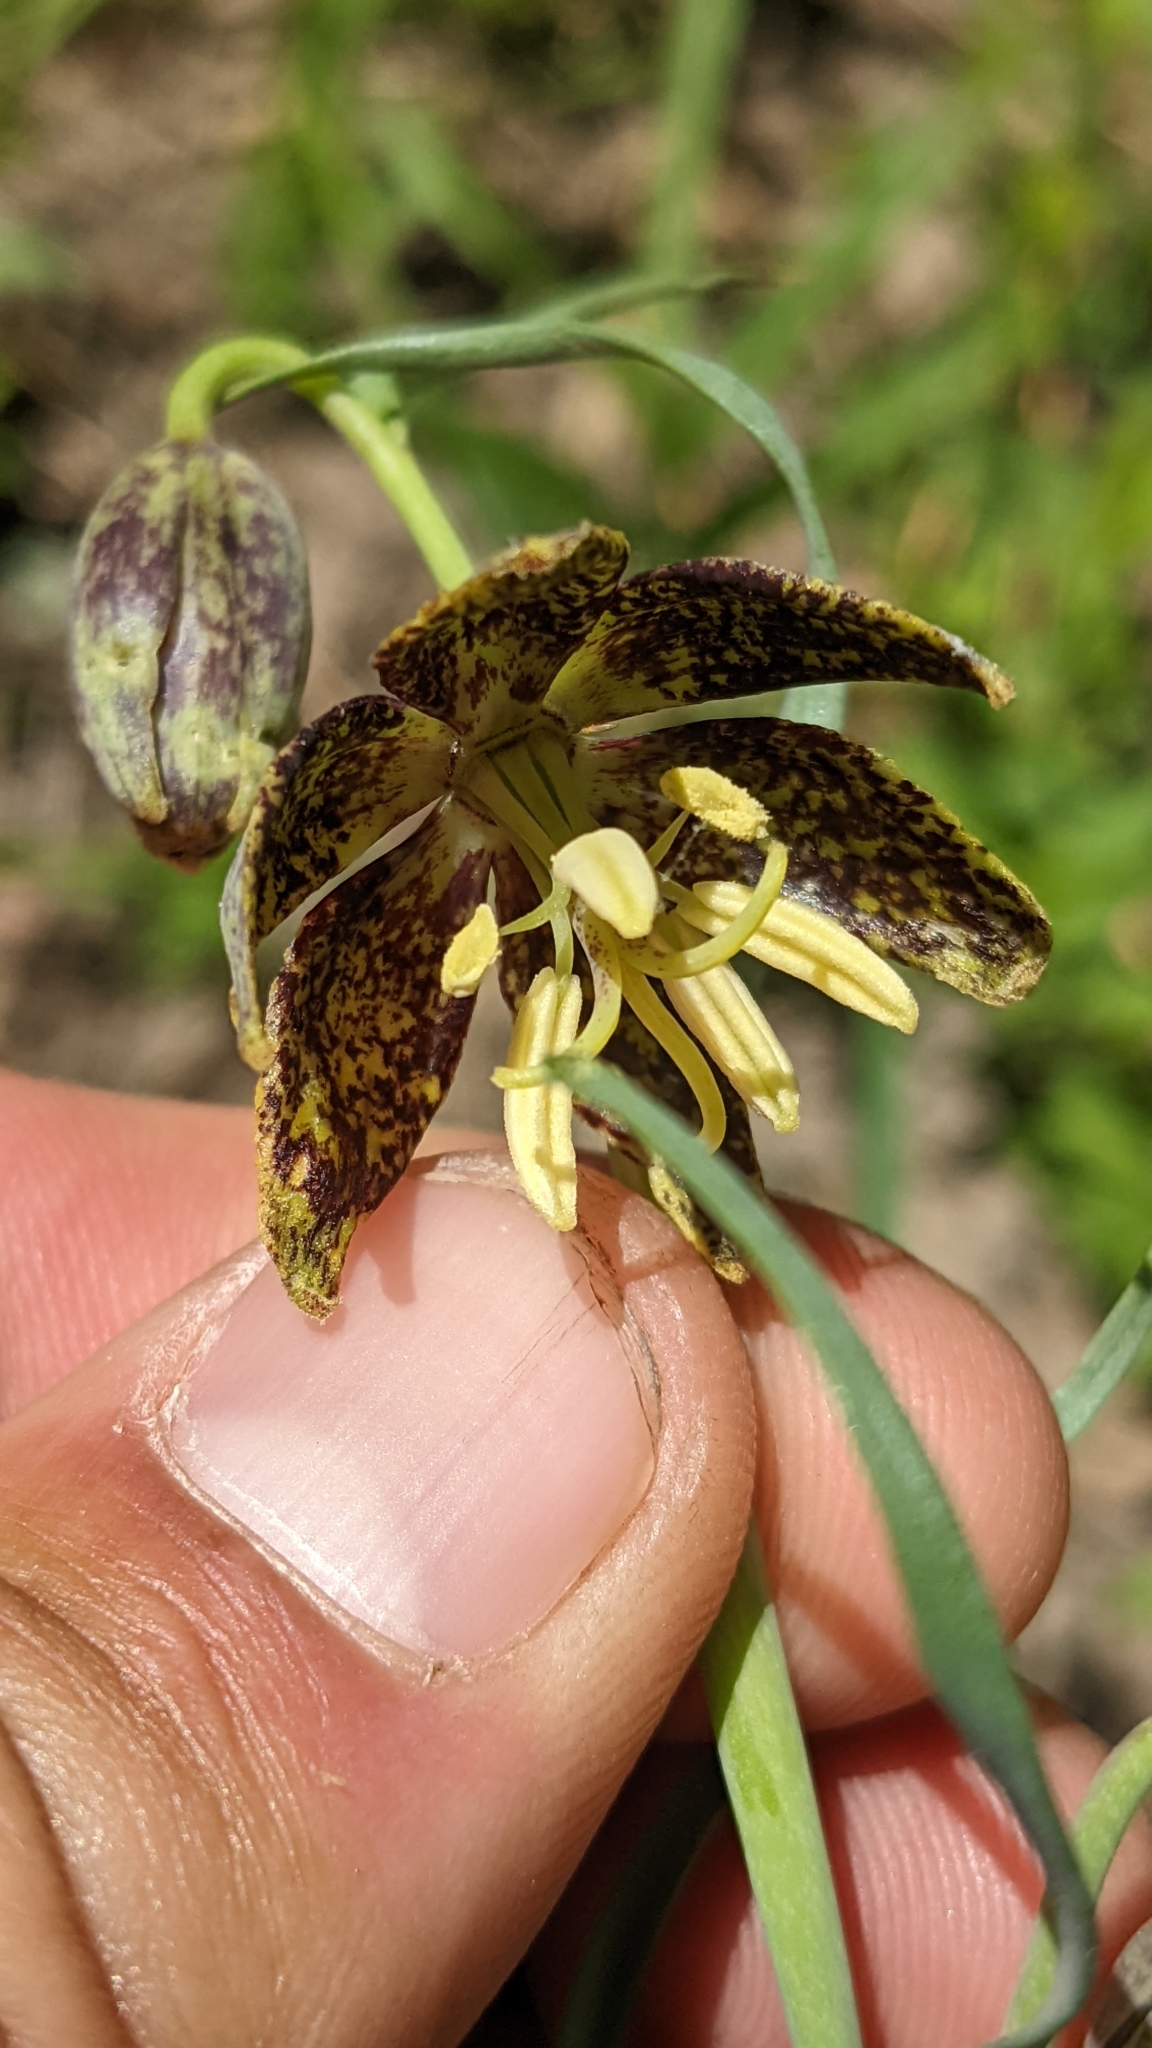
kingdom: Plantae
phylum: Tracheophyta
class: Liliopsida
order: Liliales
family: Liliaceae
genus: Fritillaria
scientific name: Fritillaria atropurpurea
